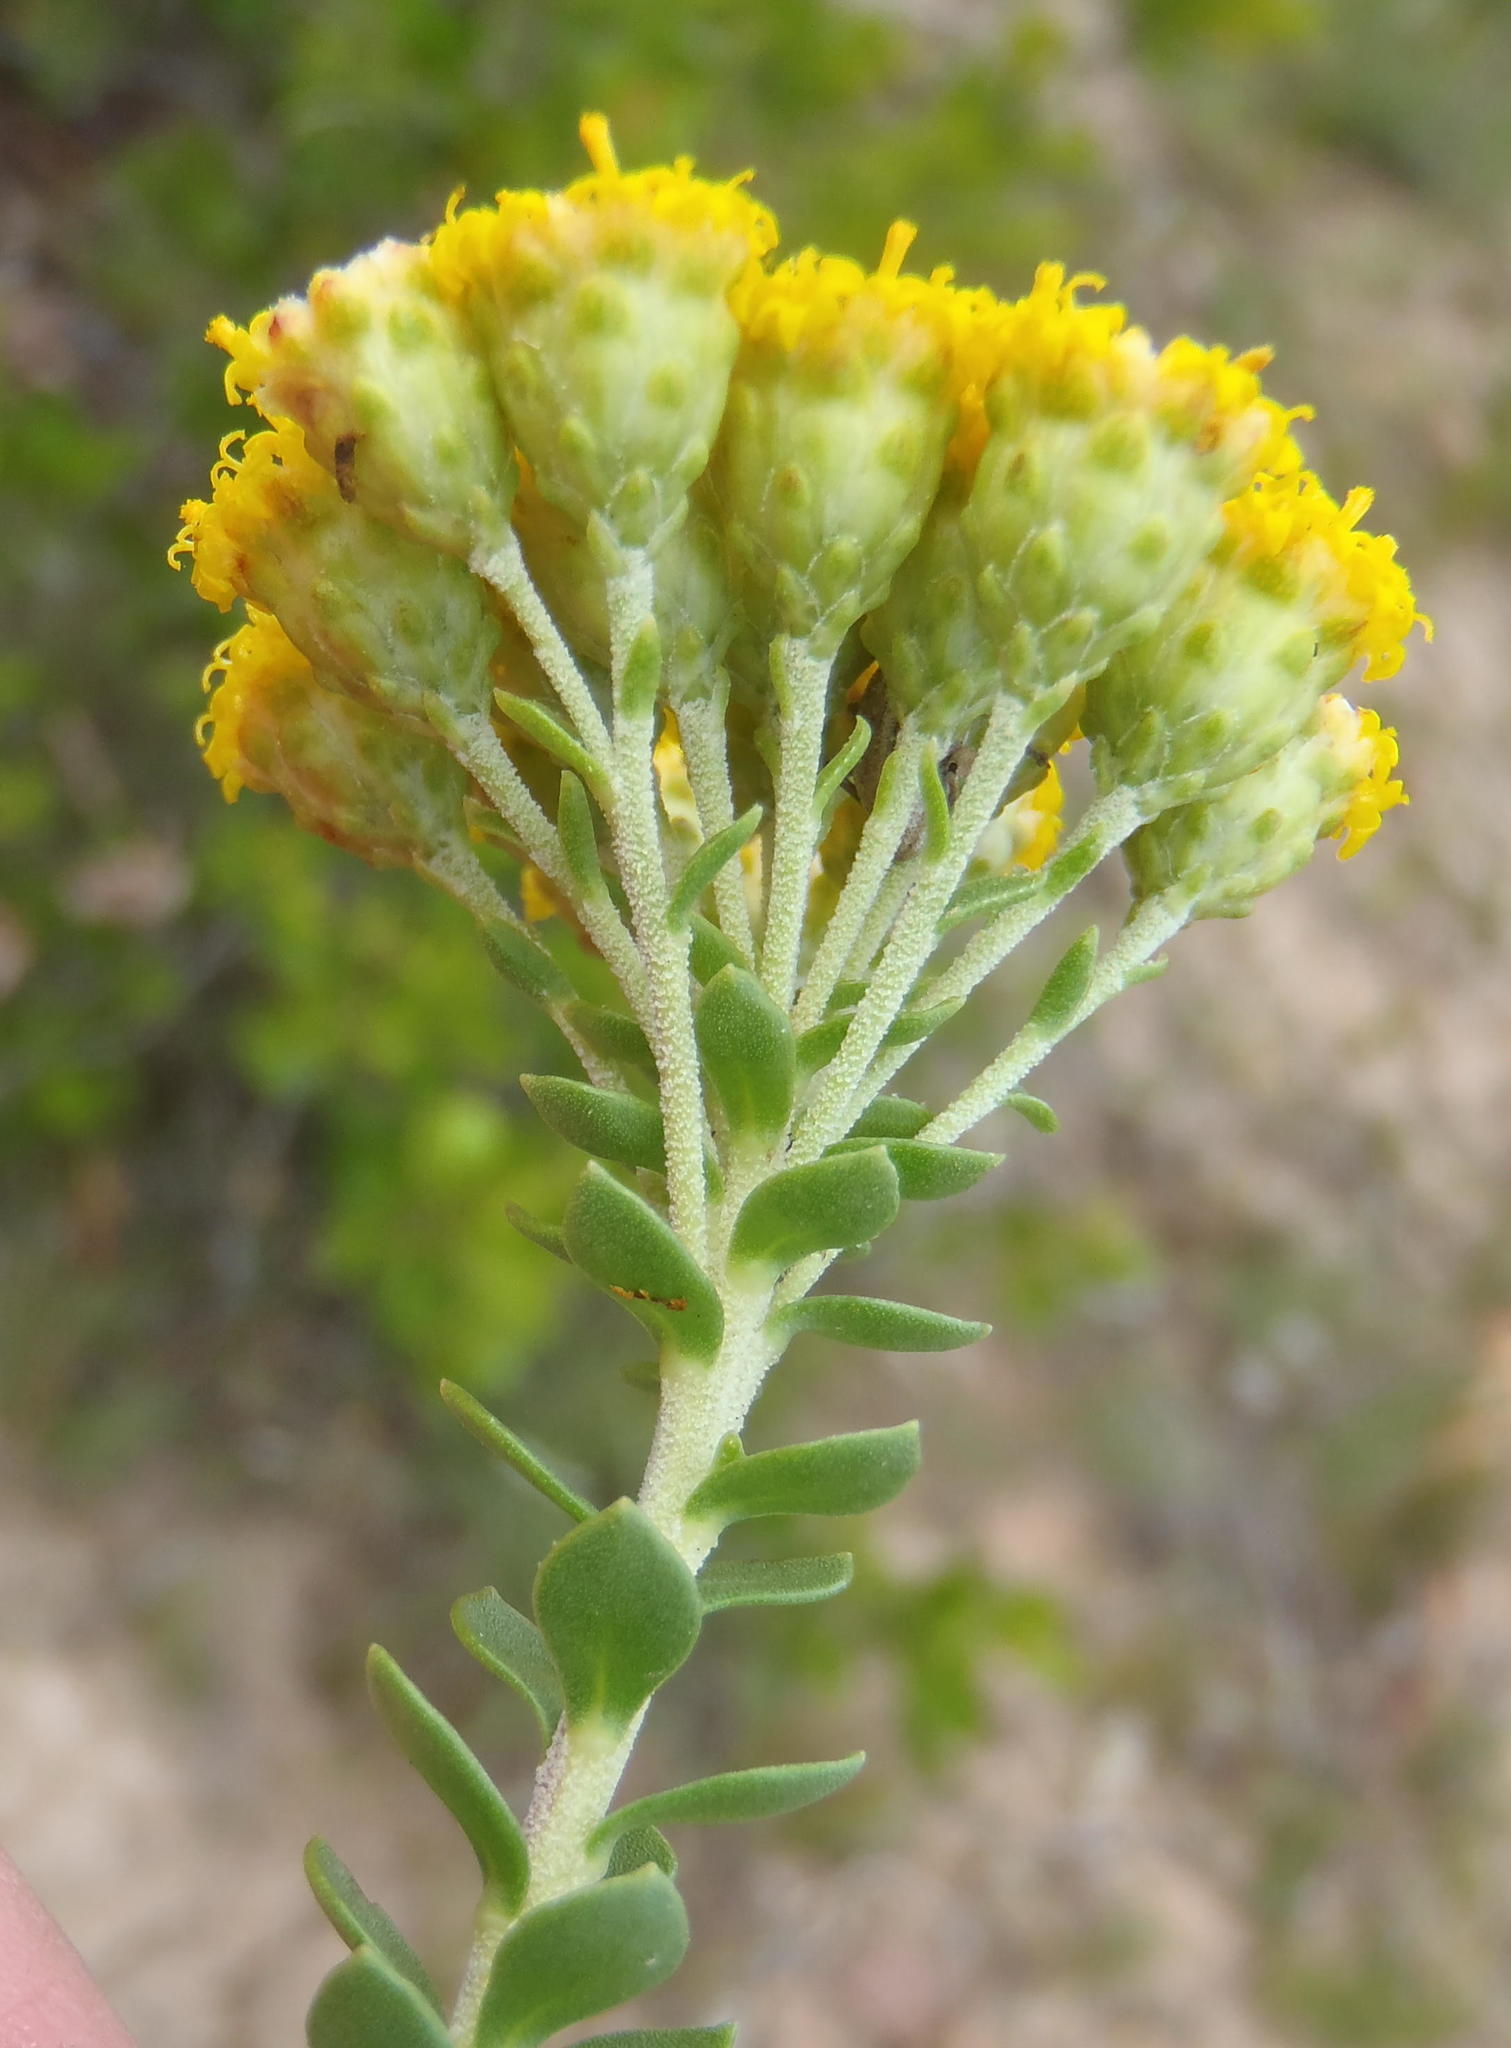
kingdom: Plantae
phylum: Tracheophyta
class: Magnoliopsida
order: Asterales
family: Asteraceae
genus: Athanasia
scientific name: Athanasia trifurcata
